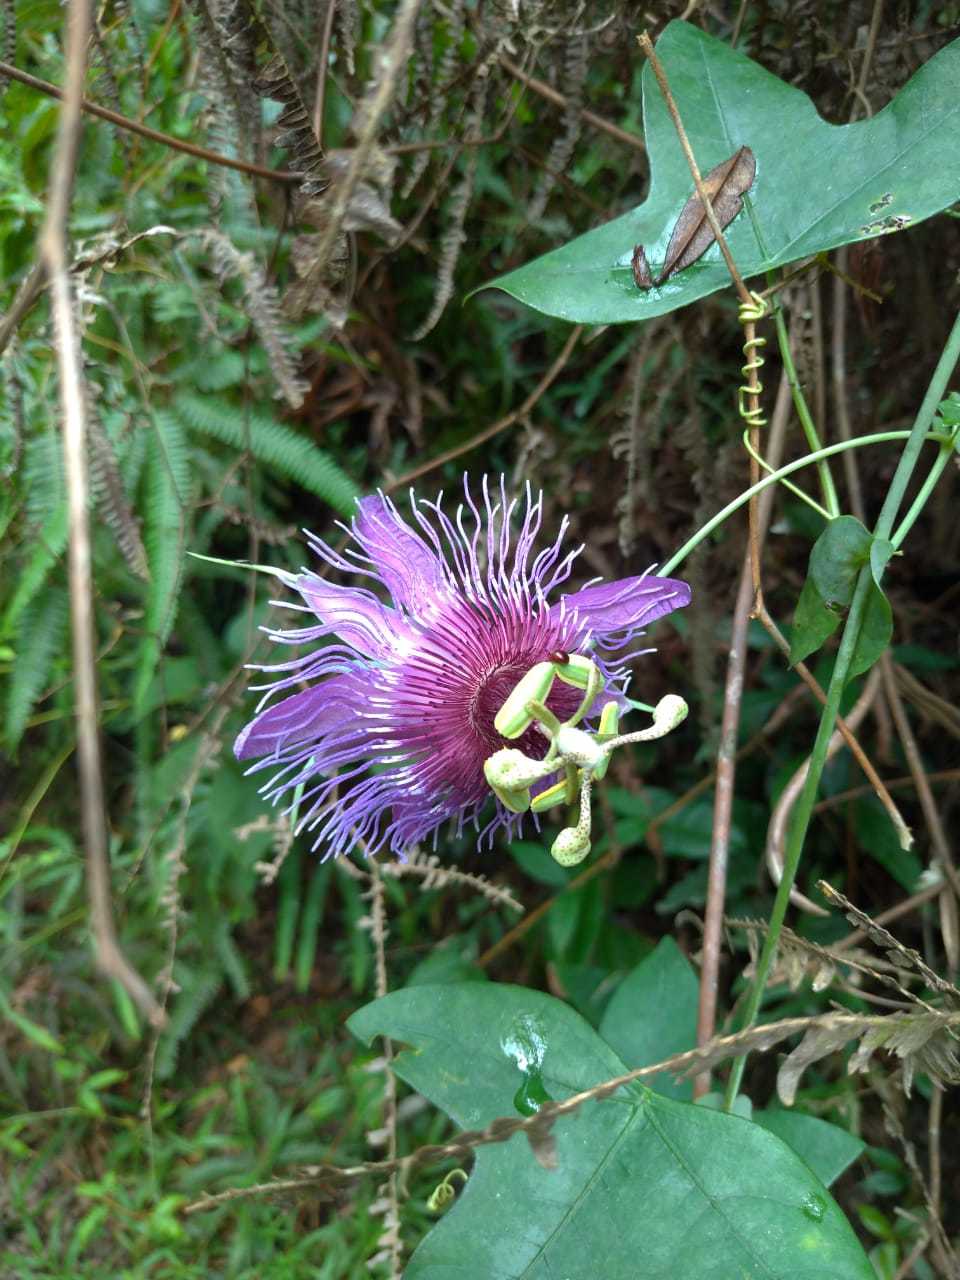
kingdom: Plantae
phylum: Tracheophyta
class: Magnoliopsida
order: Malpighiales
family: Passifloraceae
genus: Passiflora
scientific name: Passiflora amethystina
